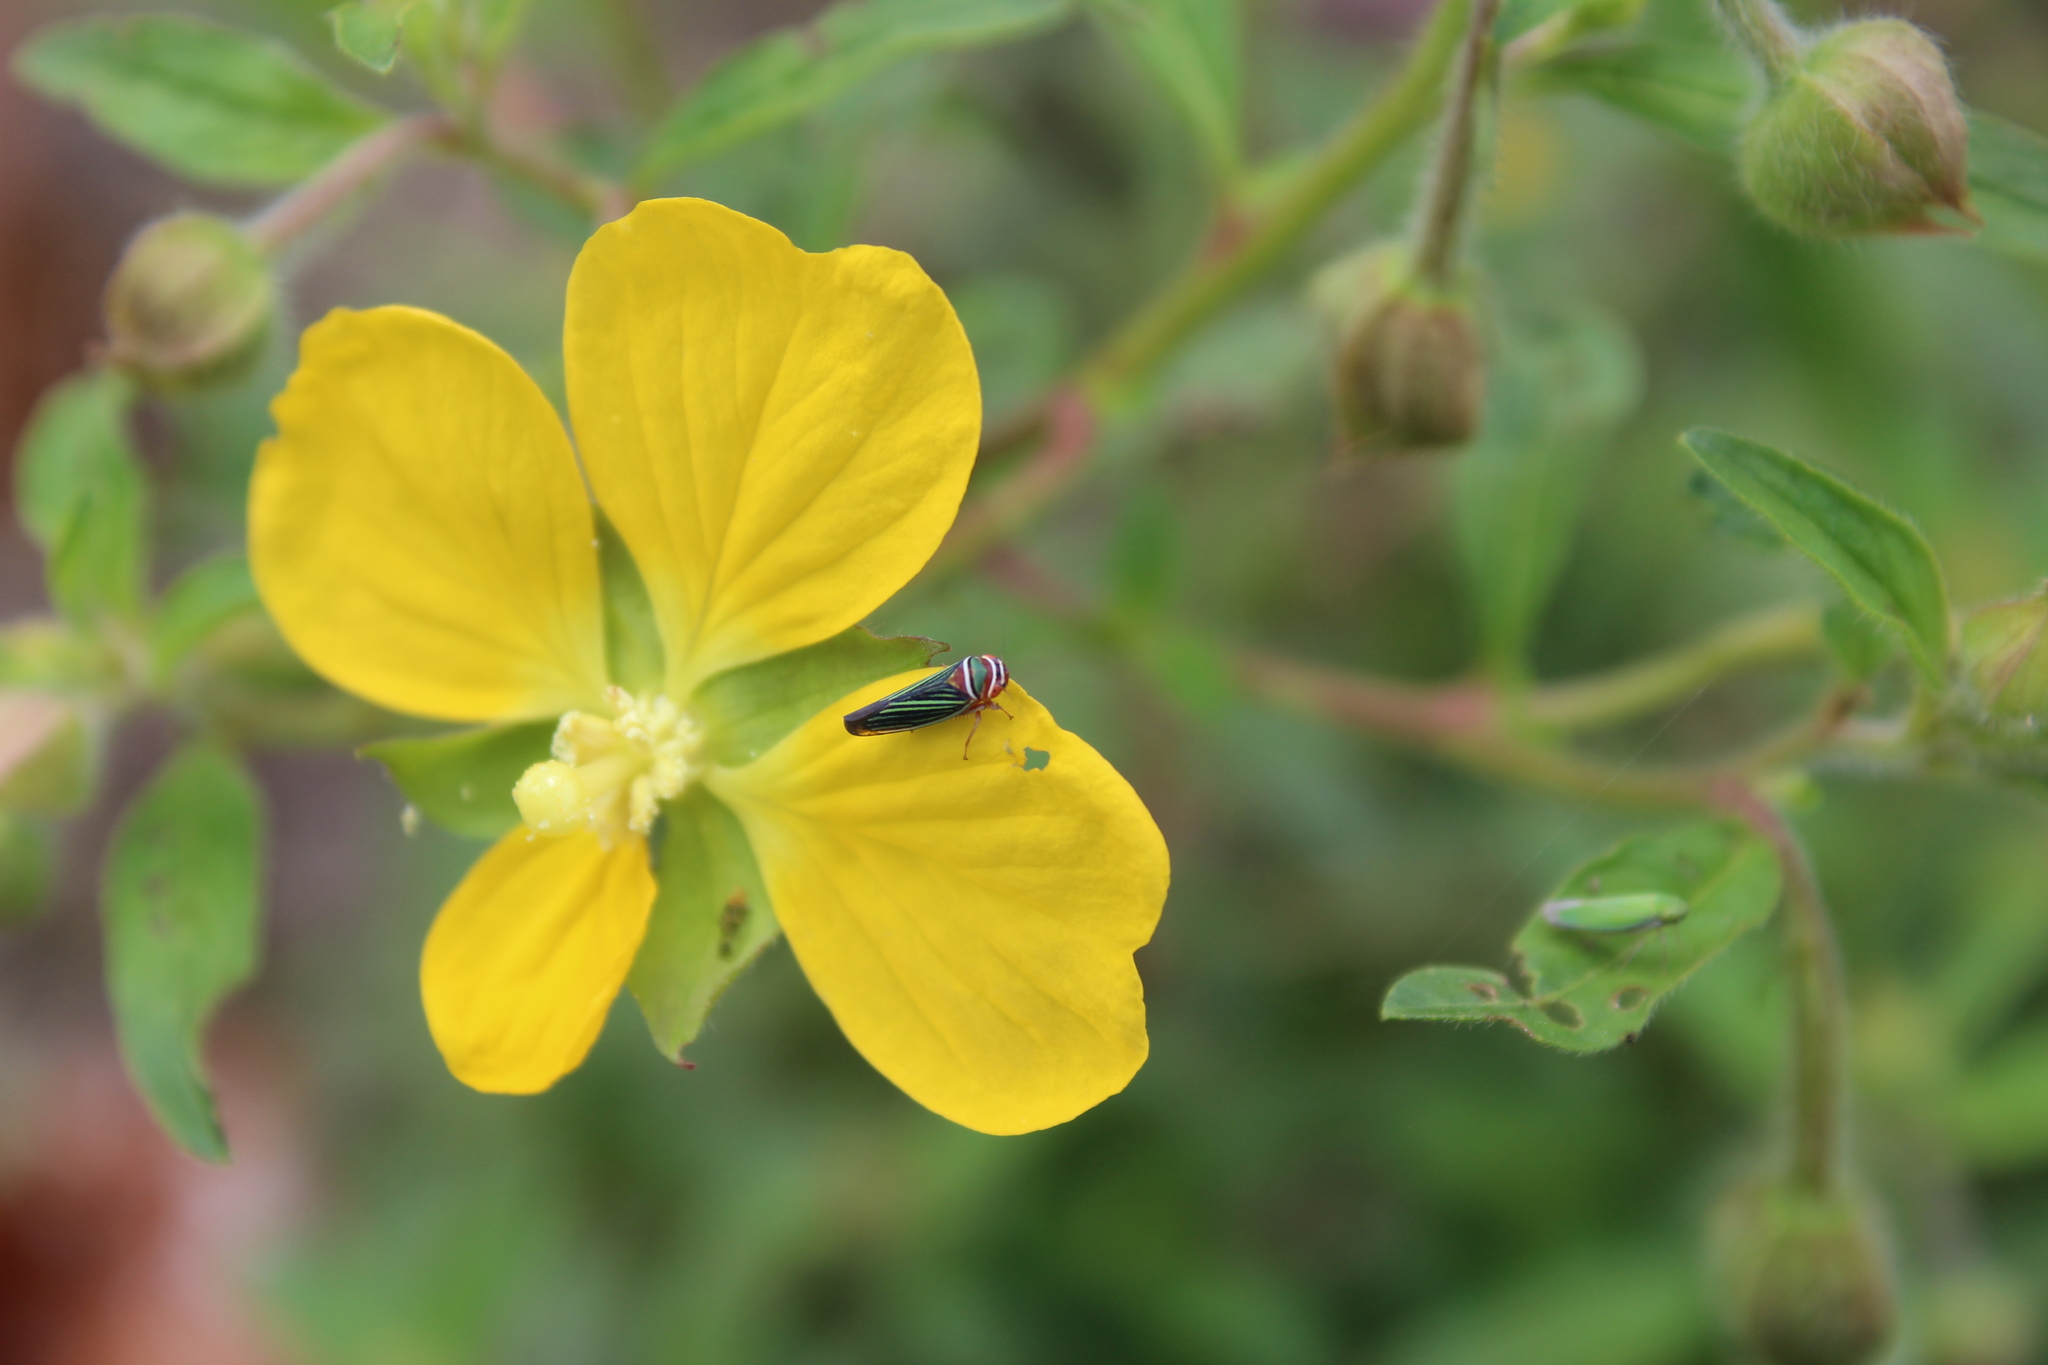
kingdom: Animalia
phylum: Arthropoda
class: Insecta
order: Hemiptera
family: Cicadellidae
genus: Tylozygus
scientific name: Tylozygus fuscolineellus
